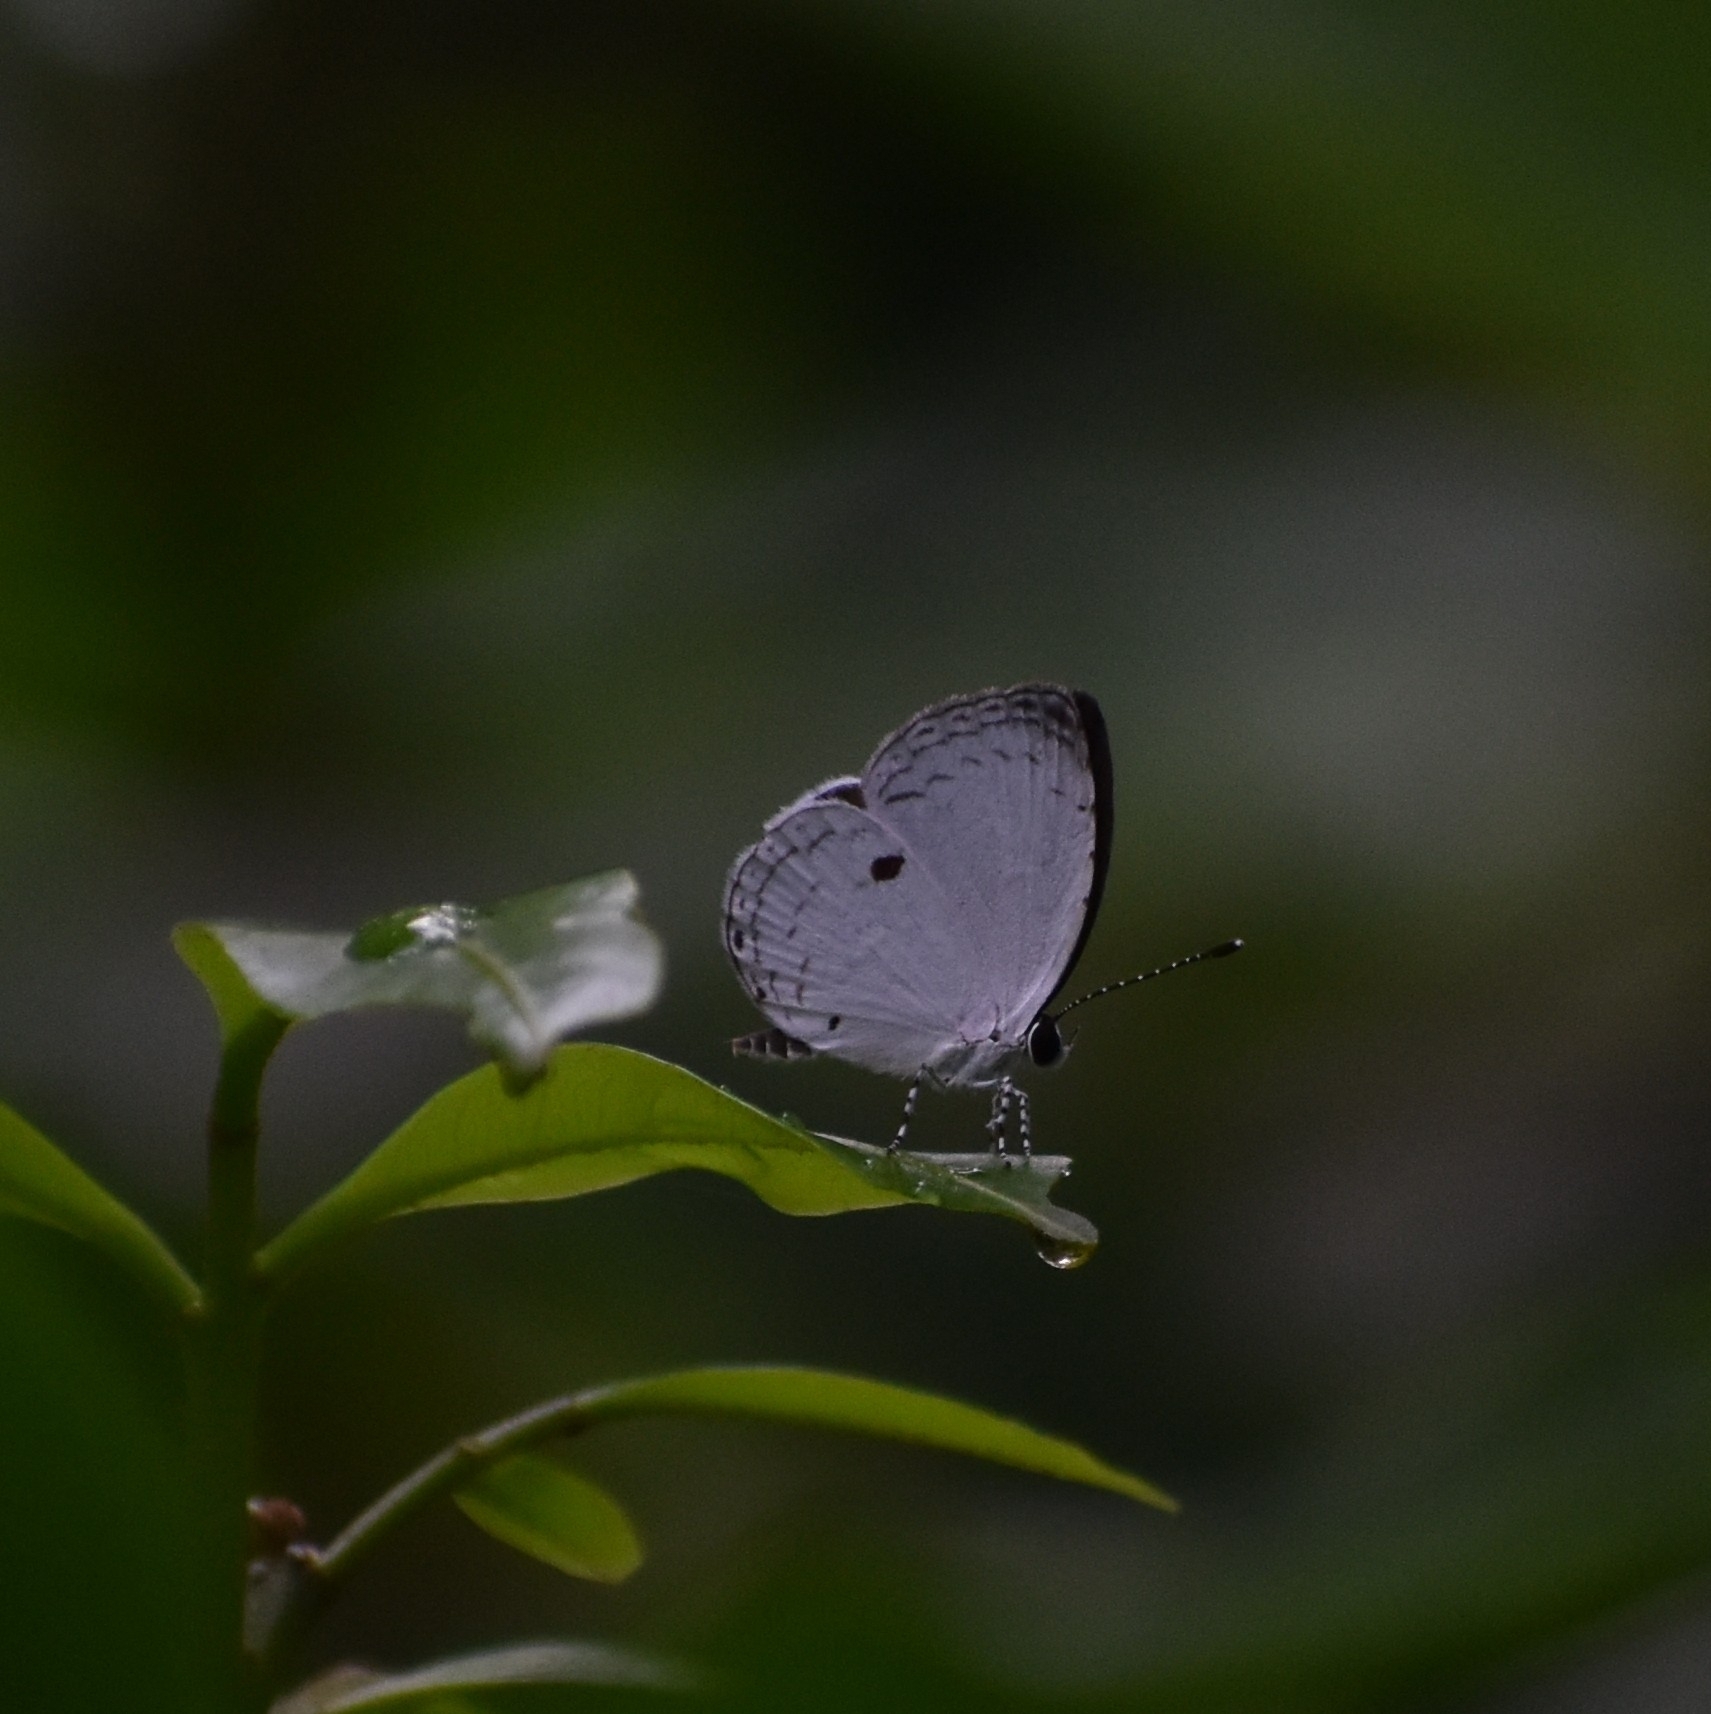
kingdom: Animalia
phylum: Arthropoda
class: Insecta
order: Lepidoptera
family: Lycaenidae
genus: Neopithecops
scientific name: Neopithecops zalmora
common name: Quaker
